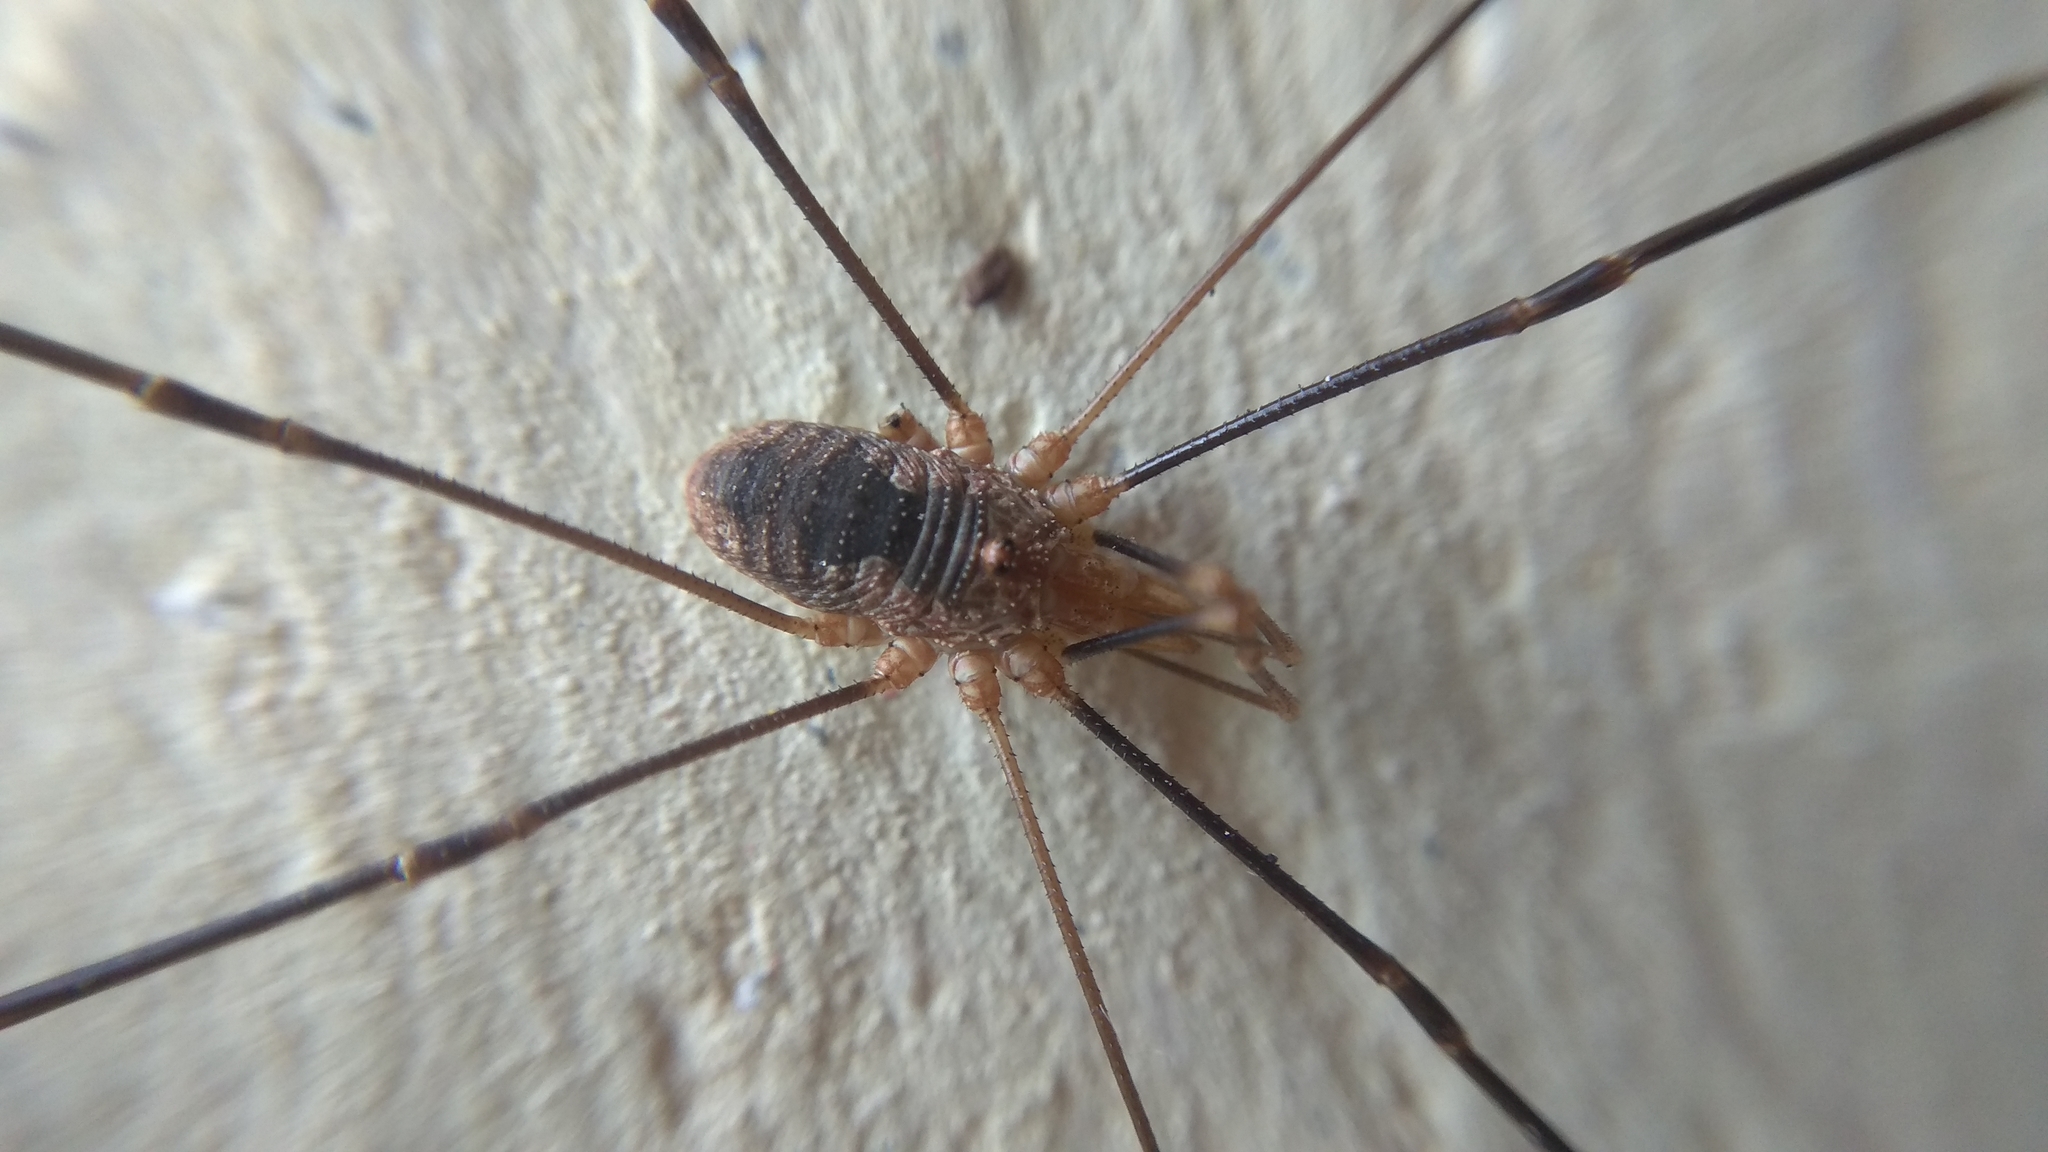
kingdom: Animalia
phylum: Arthropoda
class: Arachnida
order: Opiliones
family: Phalangiidae
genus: Phalangium
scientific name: Phalangium opilio
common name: Daddy longleg
